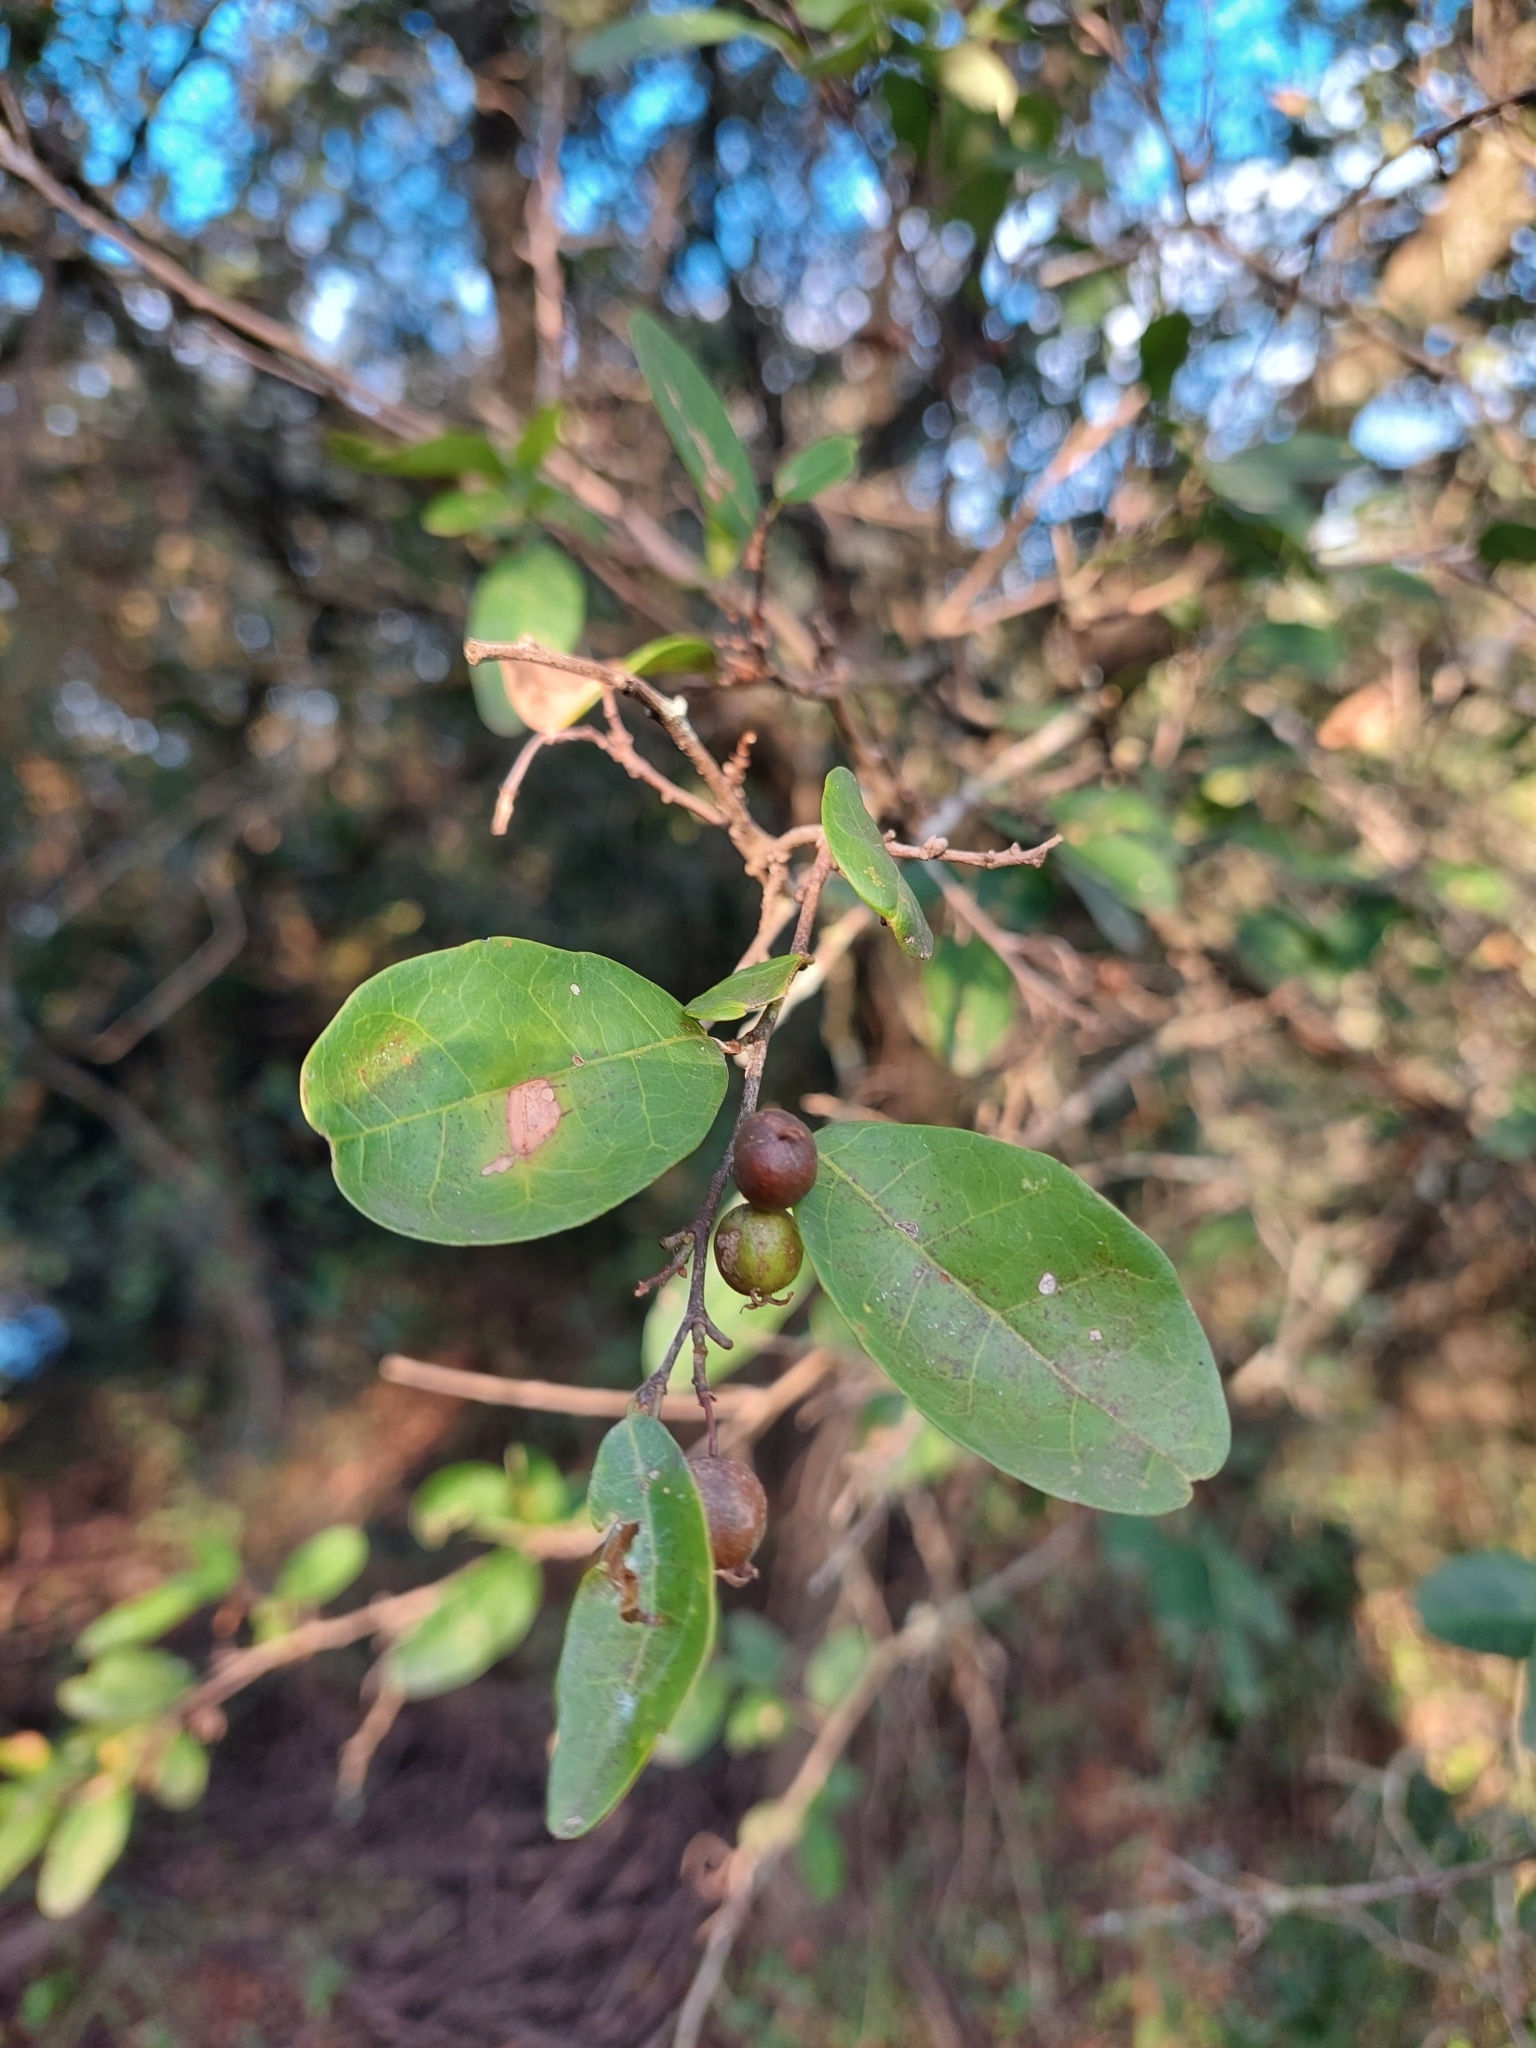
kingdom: Plantae
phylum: Tracheophyta
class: Magnoliopsida
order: Malpighiales
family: Euphorbiaceae
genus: Sebastiania
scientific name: Sebastiania klotzschiana
